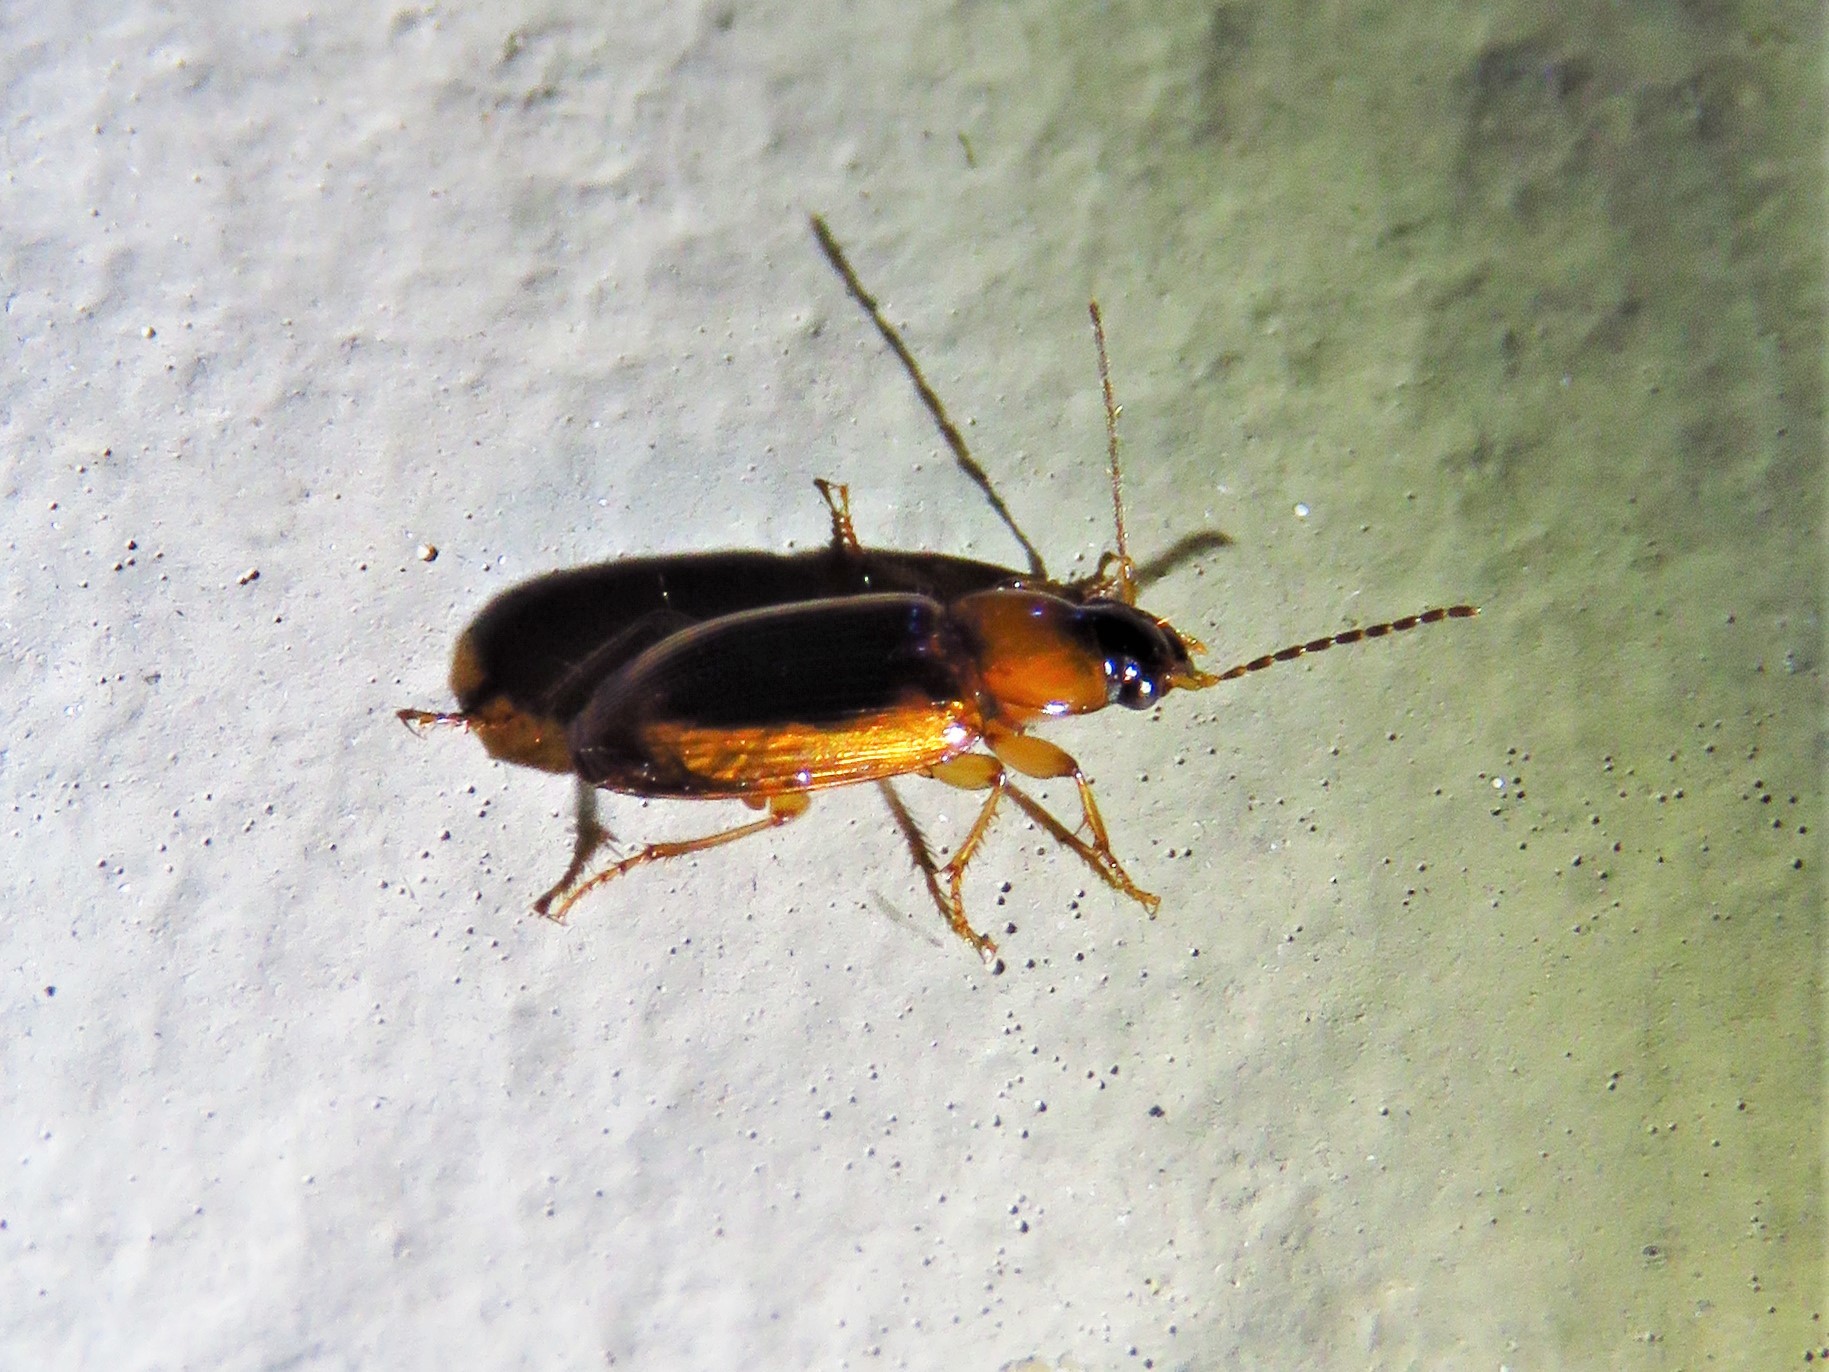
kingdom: Animalia
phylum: Arthropoda
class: Insecta
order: Coleoptera
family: Carabidae
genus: Stenolophus
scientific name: Stenolophus dissimilis
